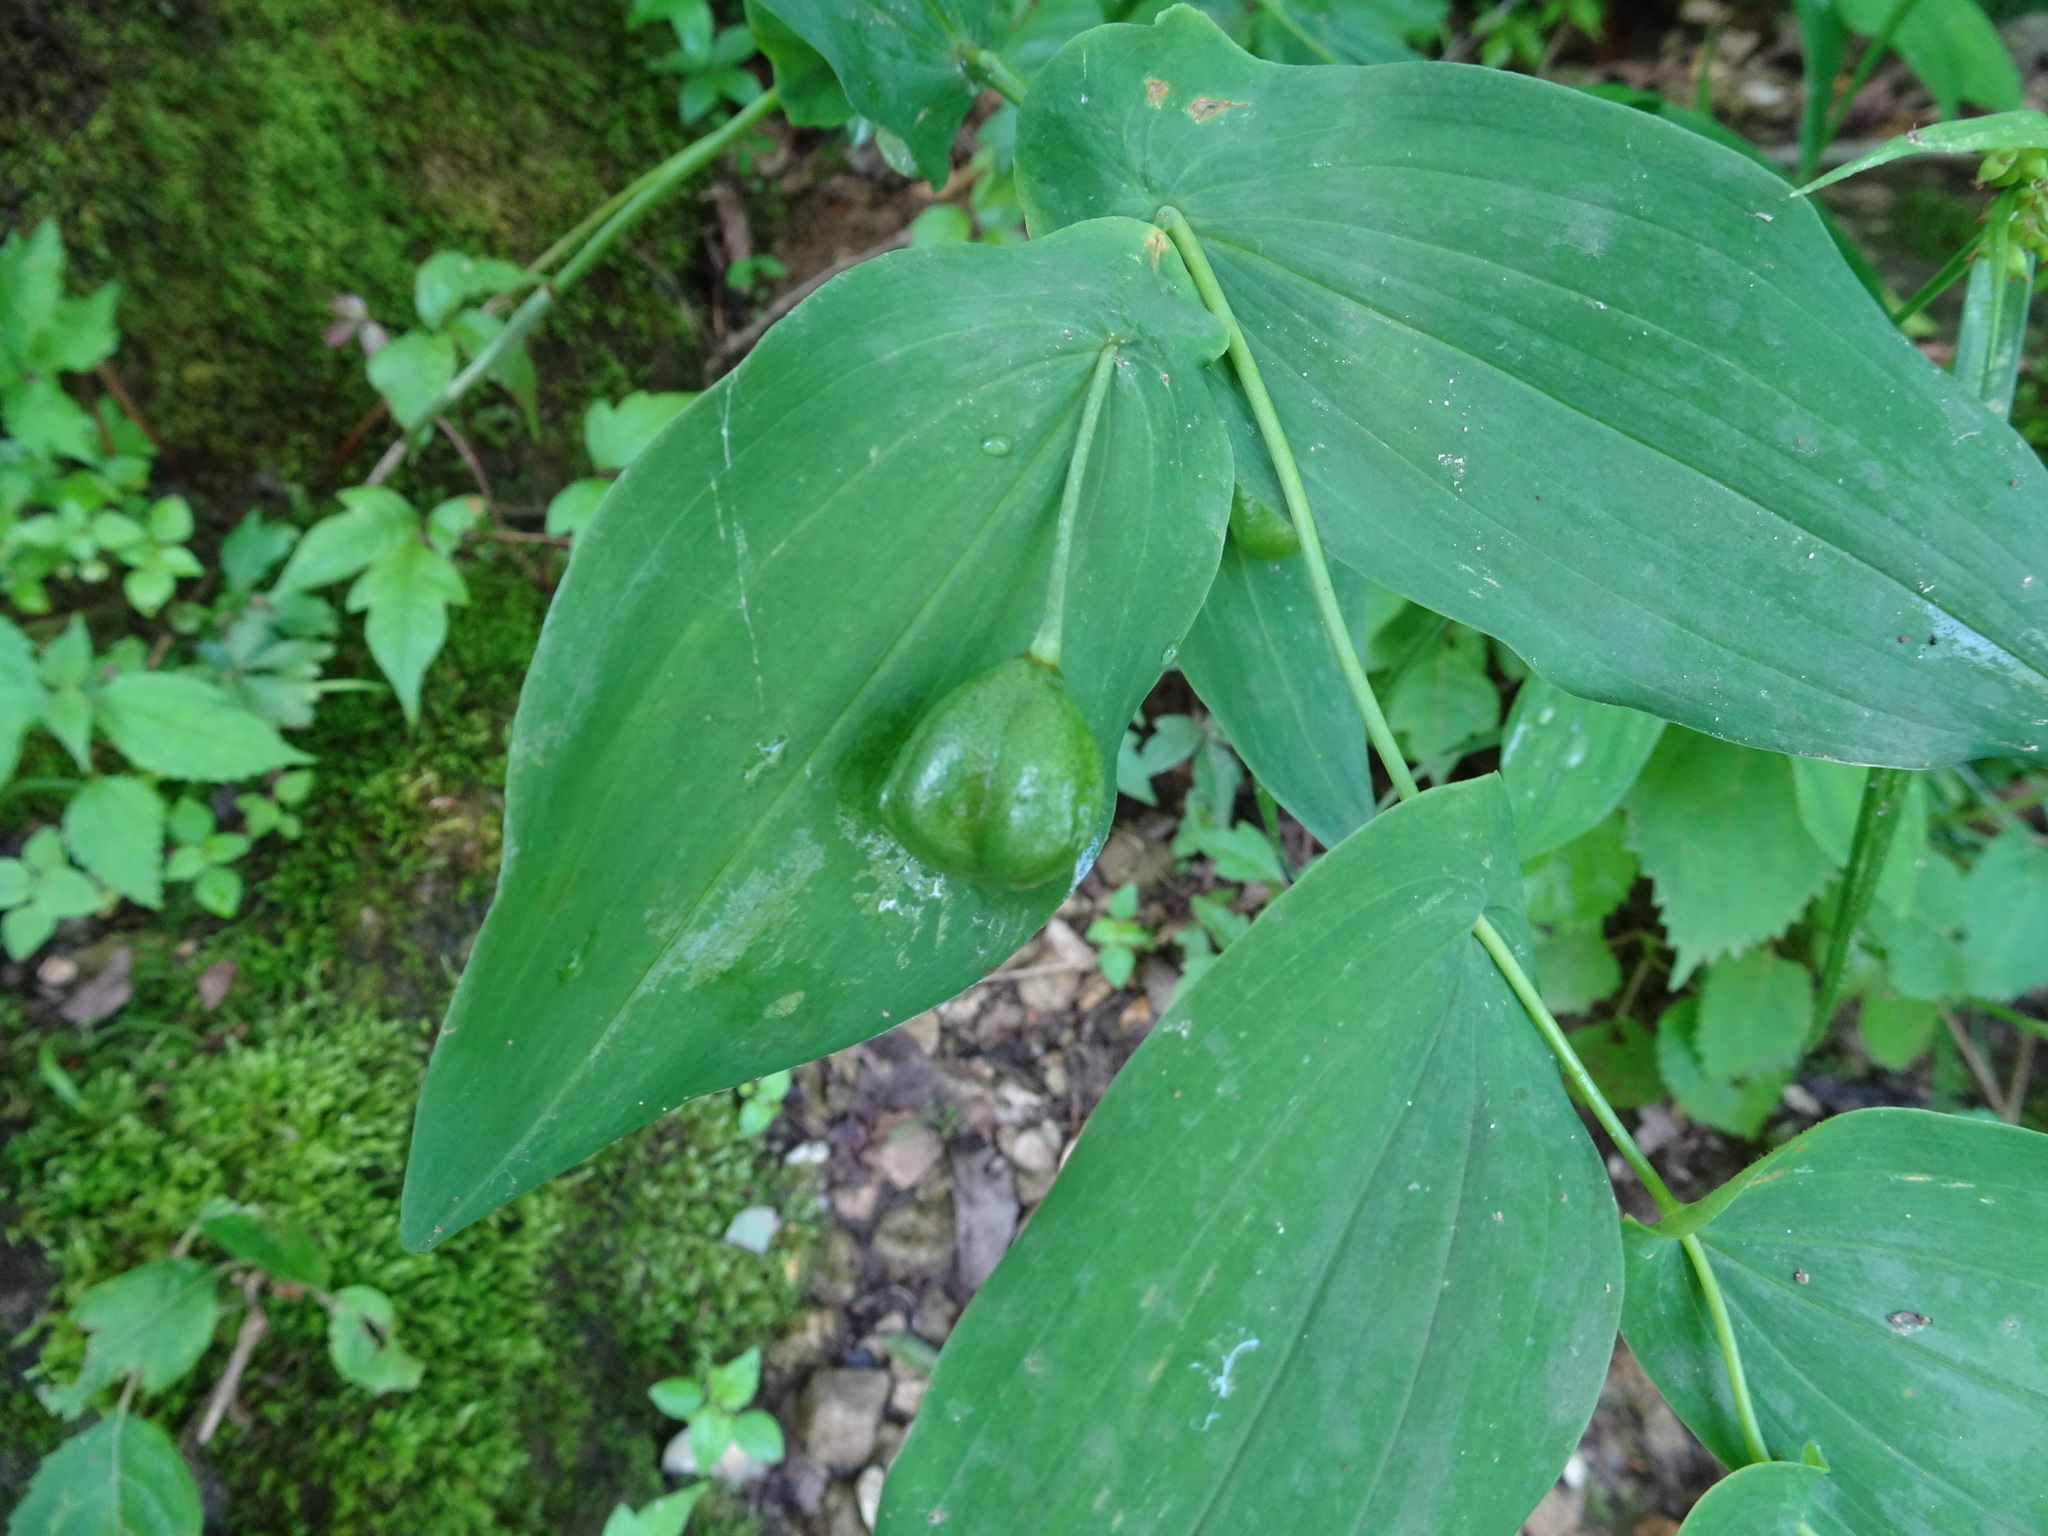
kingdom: Plantae
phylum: Tracheophyta
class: Liliopsida
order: Liliales
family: Colchicaceae
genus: Uvularia
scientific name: Uvularia grandiflora
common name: Bellwort
